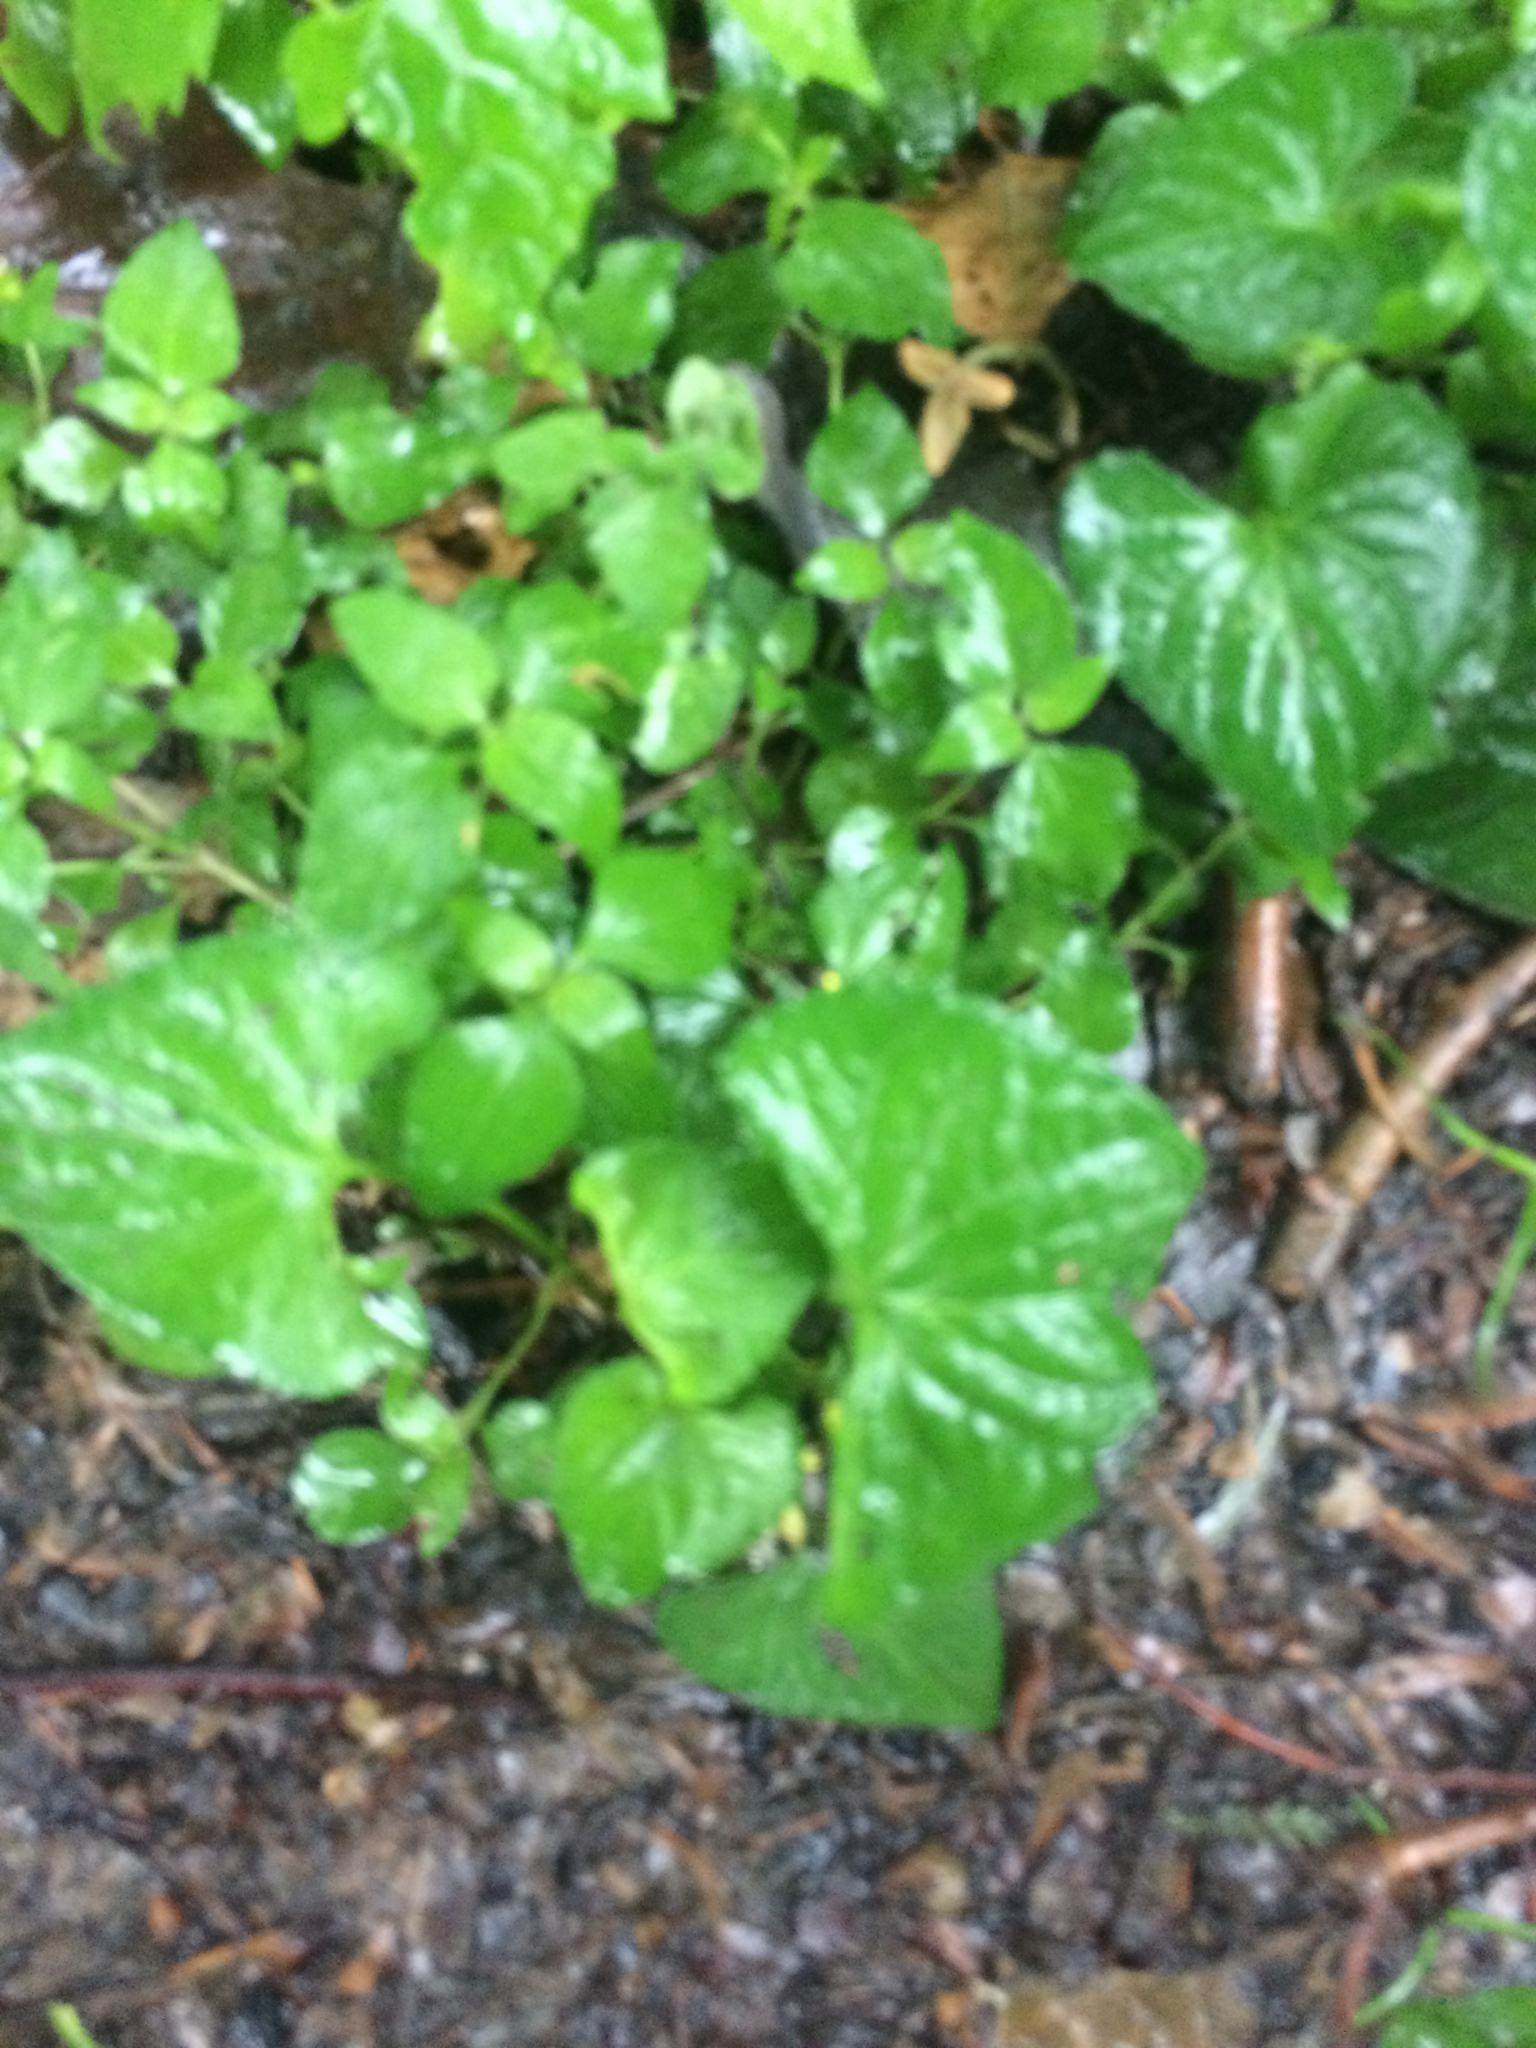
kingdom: Plantae
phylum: Tracheophyta
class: Magnoliopsida
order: Malpighiales
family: Violaceae
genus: Viola
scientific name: Viola sororia
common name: Dooryard violet
